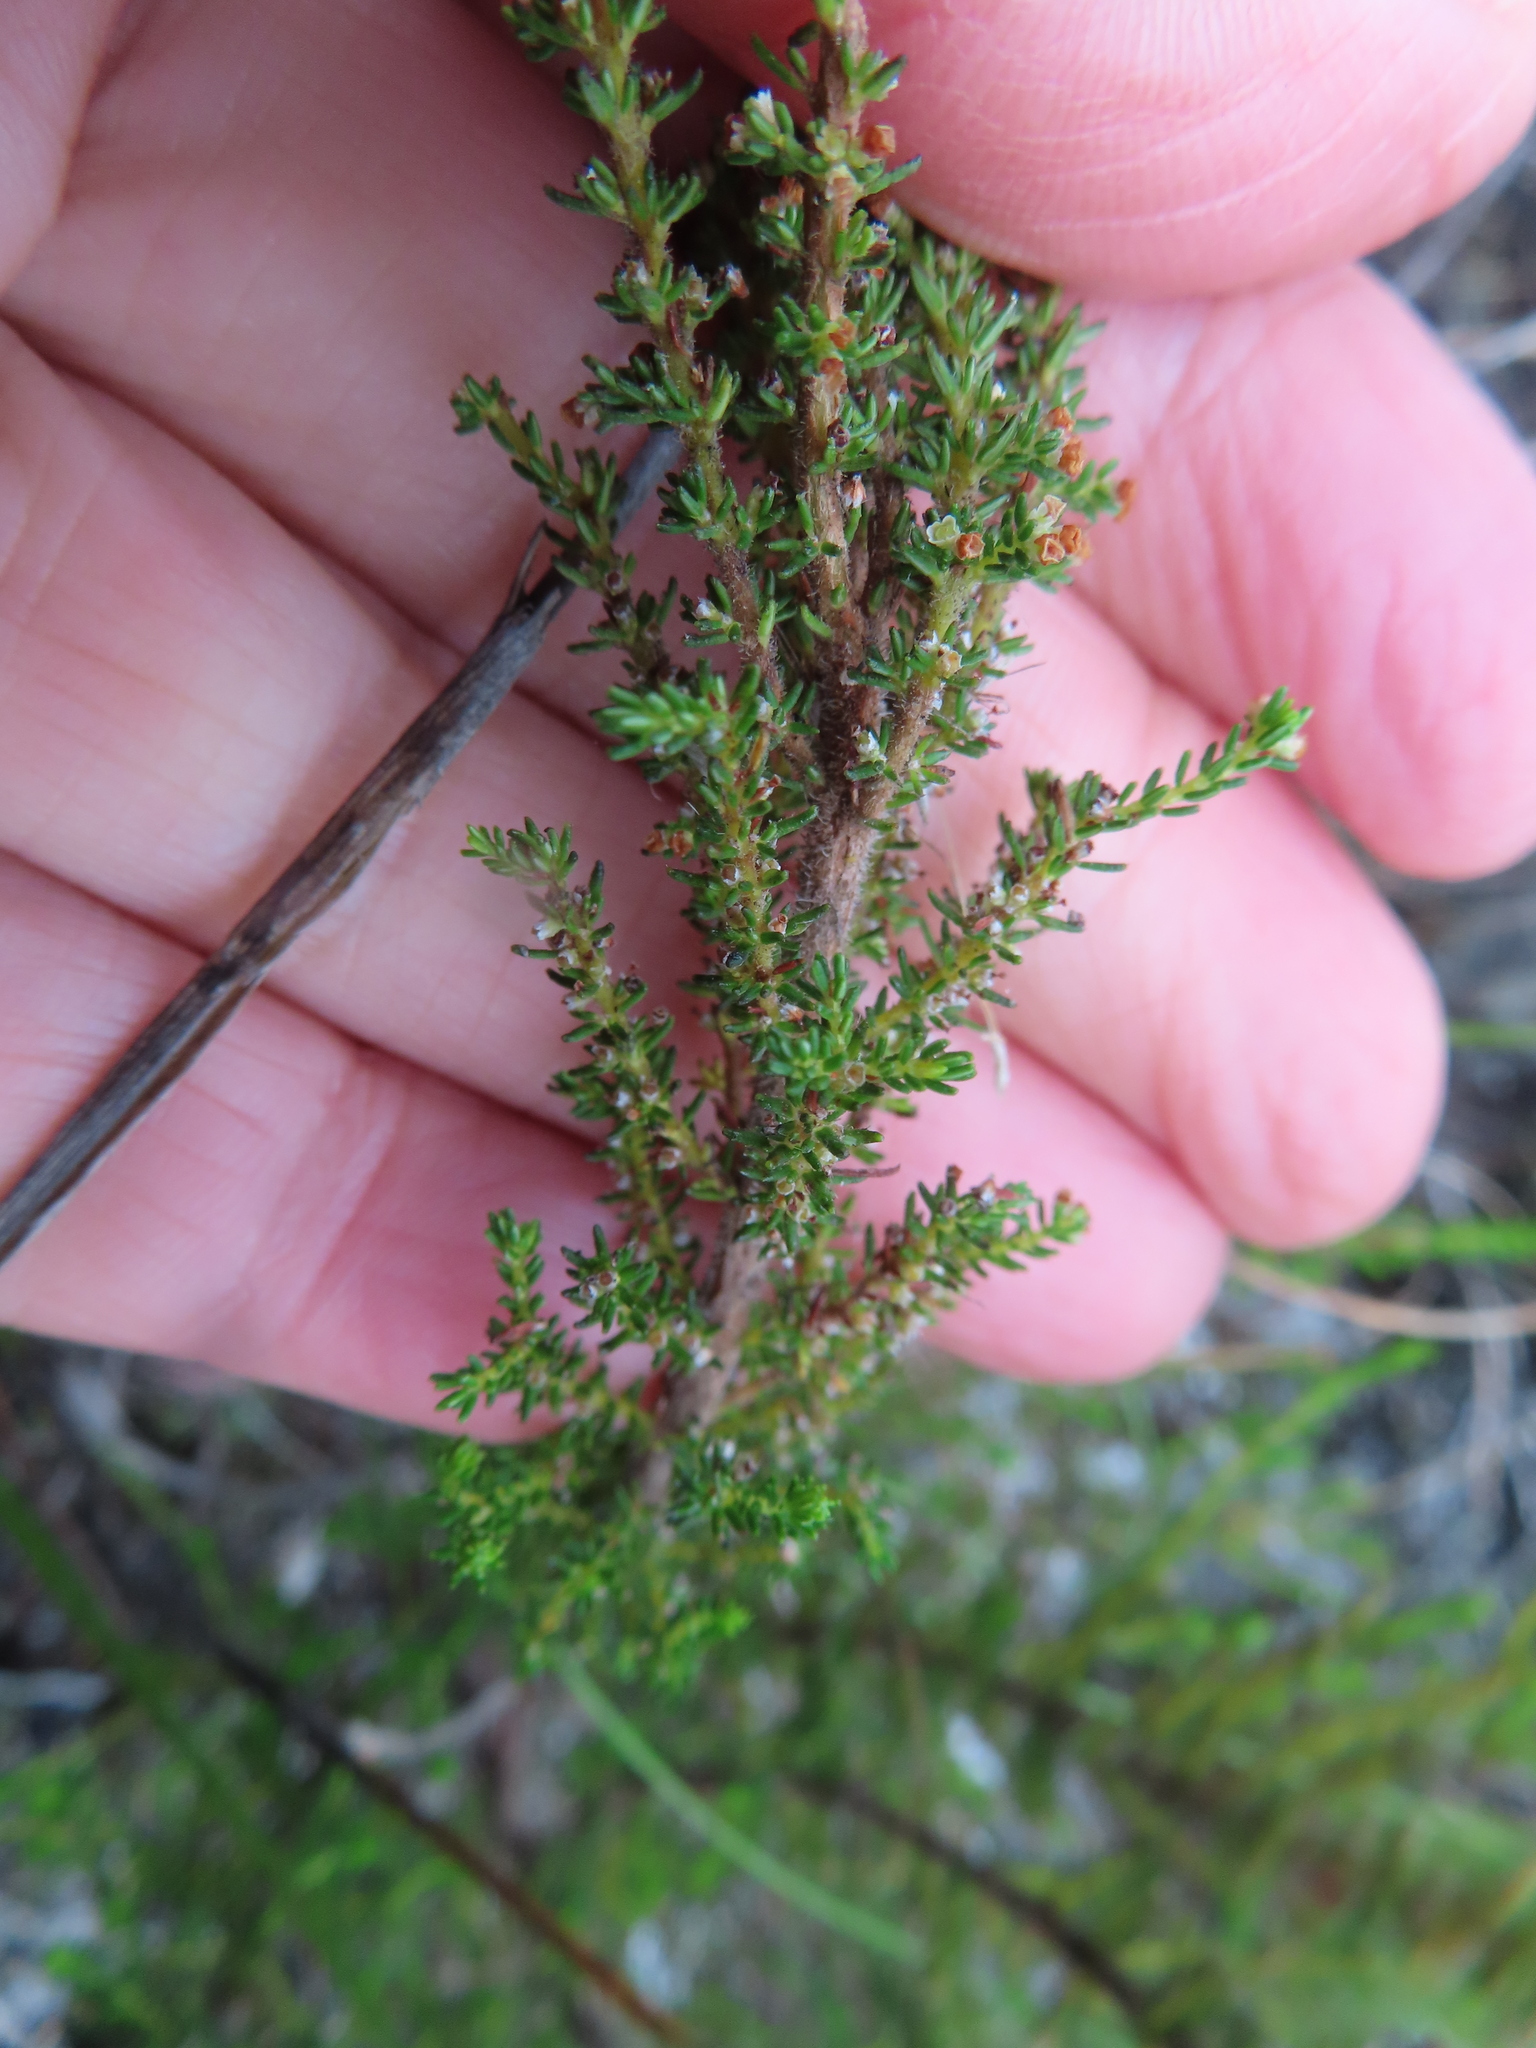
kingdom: Plantae
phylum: Tracheophyta
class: Magnoliopsida
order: Ericales
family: Ericaceae
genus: Erica
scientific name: Erica muscosa
